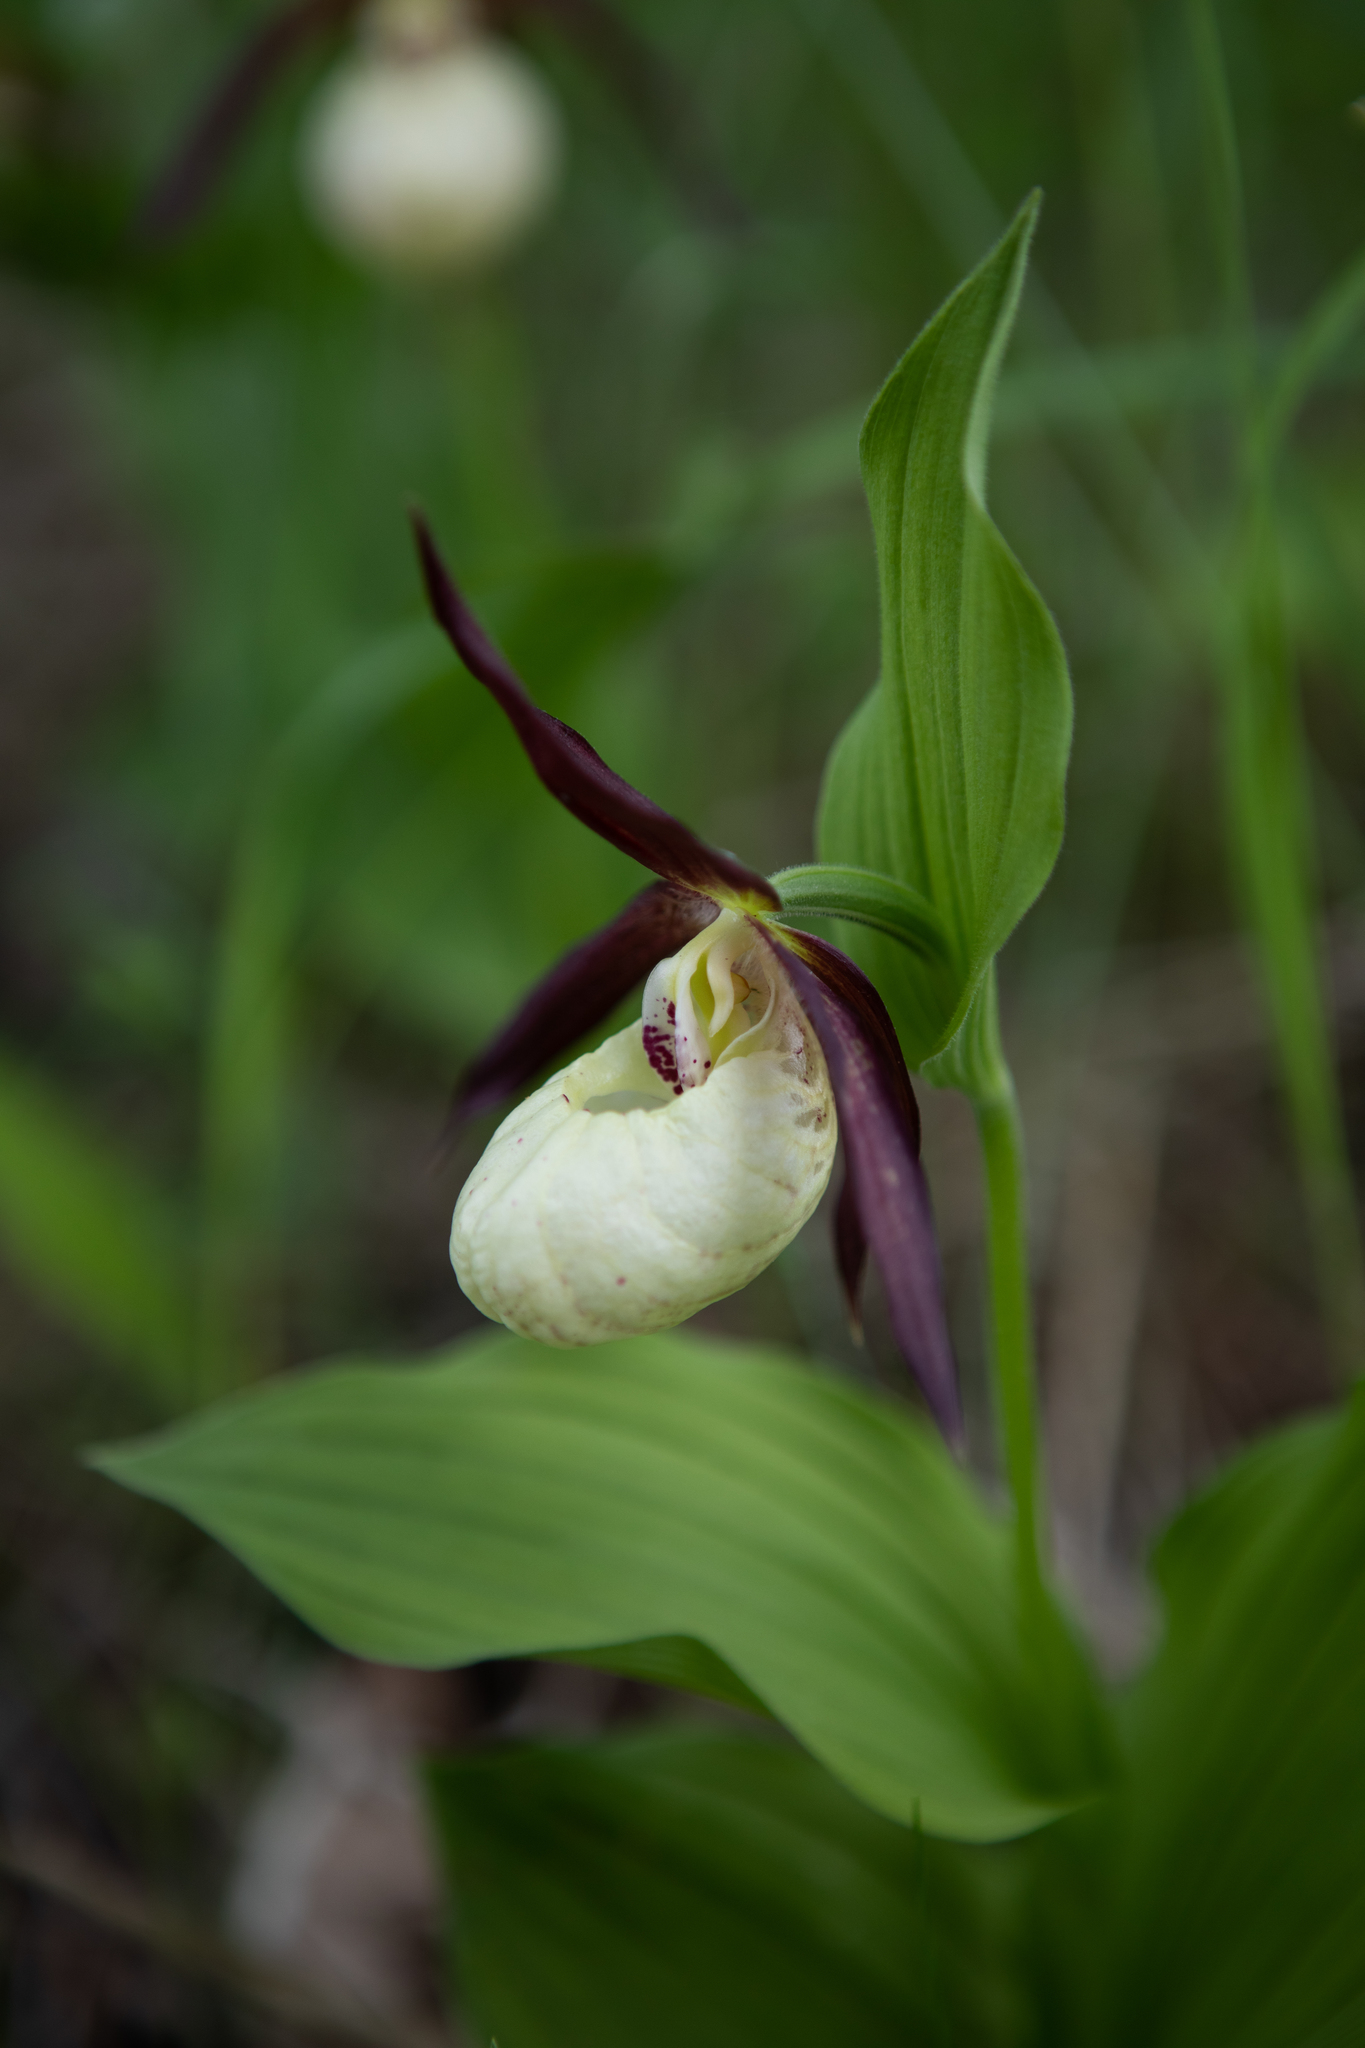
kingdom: Plantae
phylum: Tracheophyta
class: Liliopsida
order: Asparagales
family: Orchidaceae
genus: Cypripedium
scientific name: Cypripedium ventricosum
